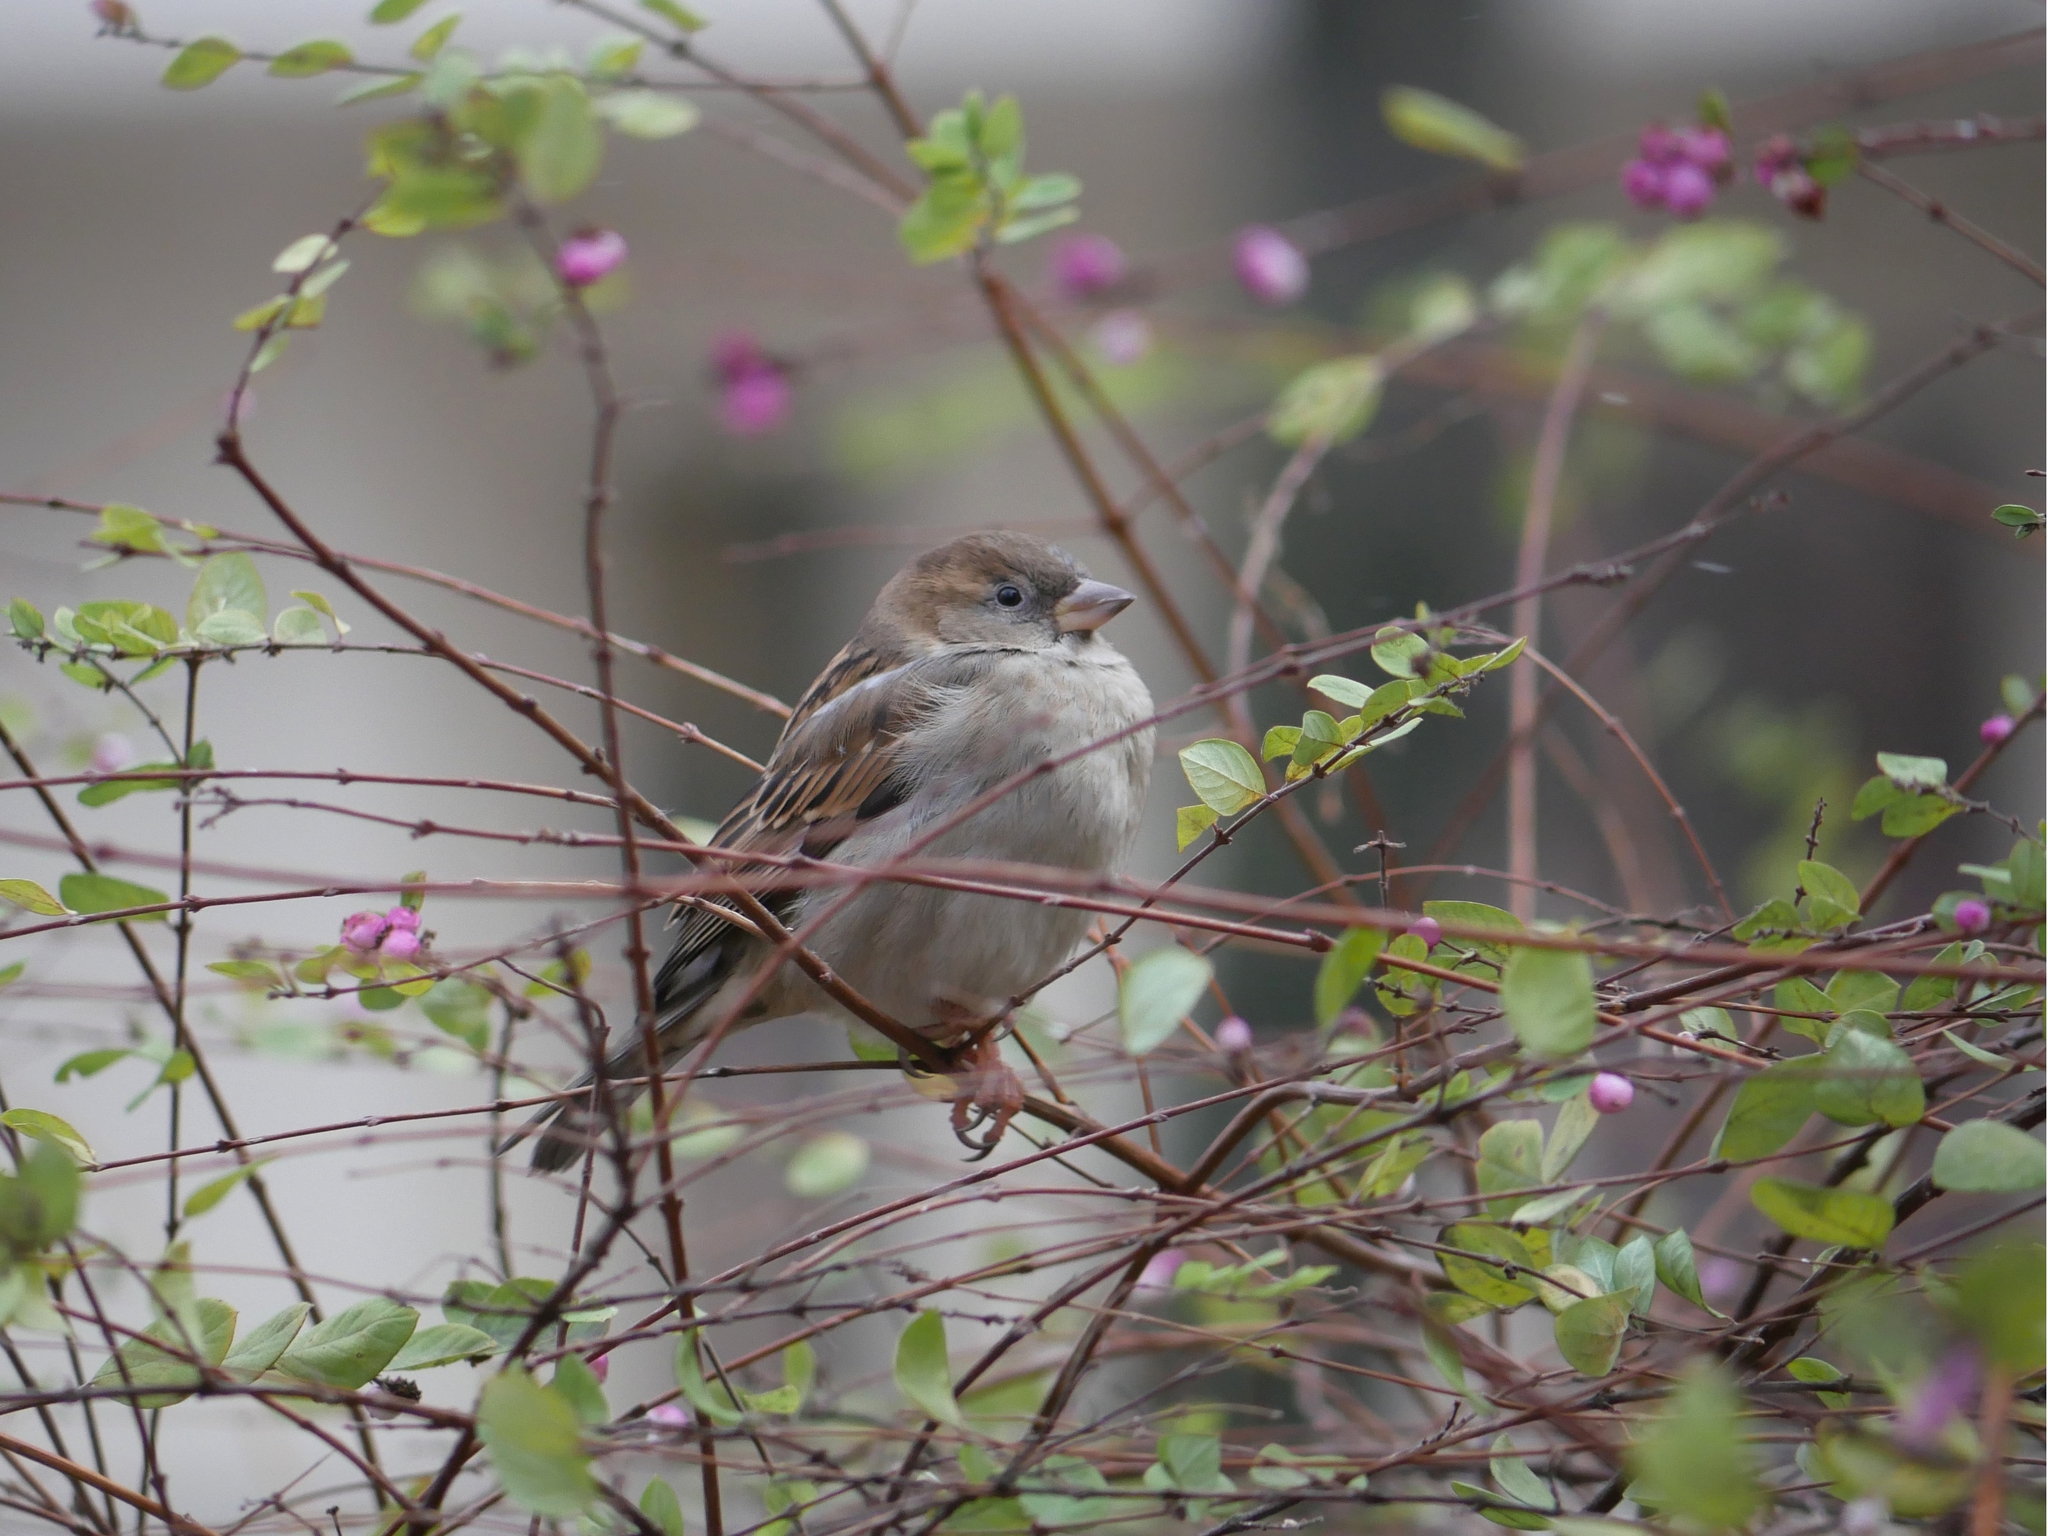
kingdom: Animalia
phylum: Chordata
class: Aves
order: Passeriformes
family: Passeridae
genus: Passer
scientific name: Passer domesticus
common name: House sparrow
